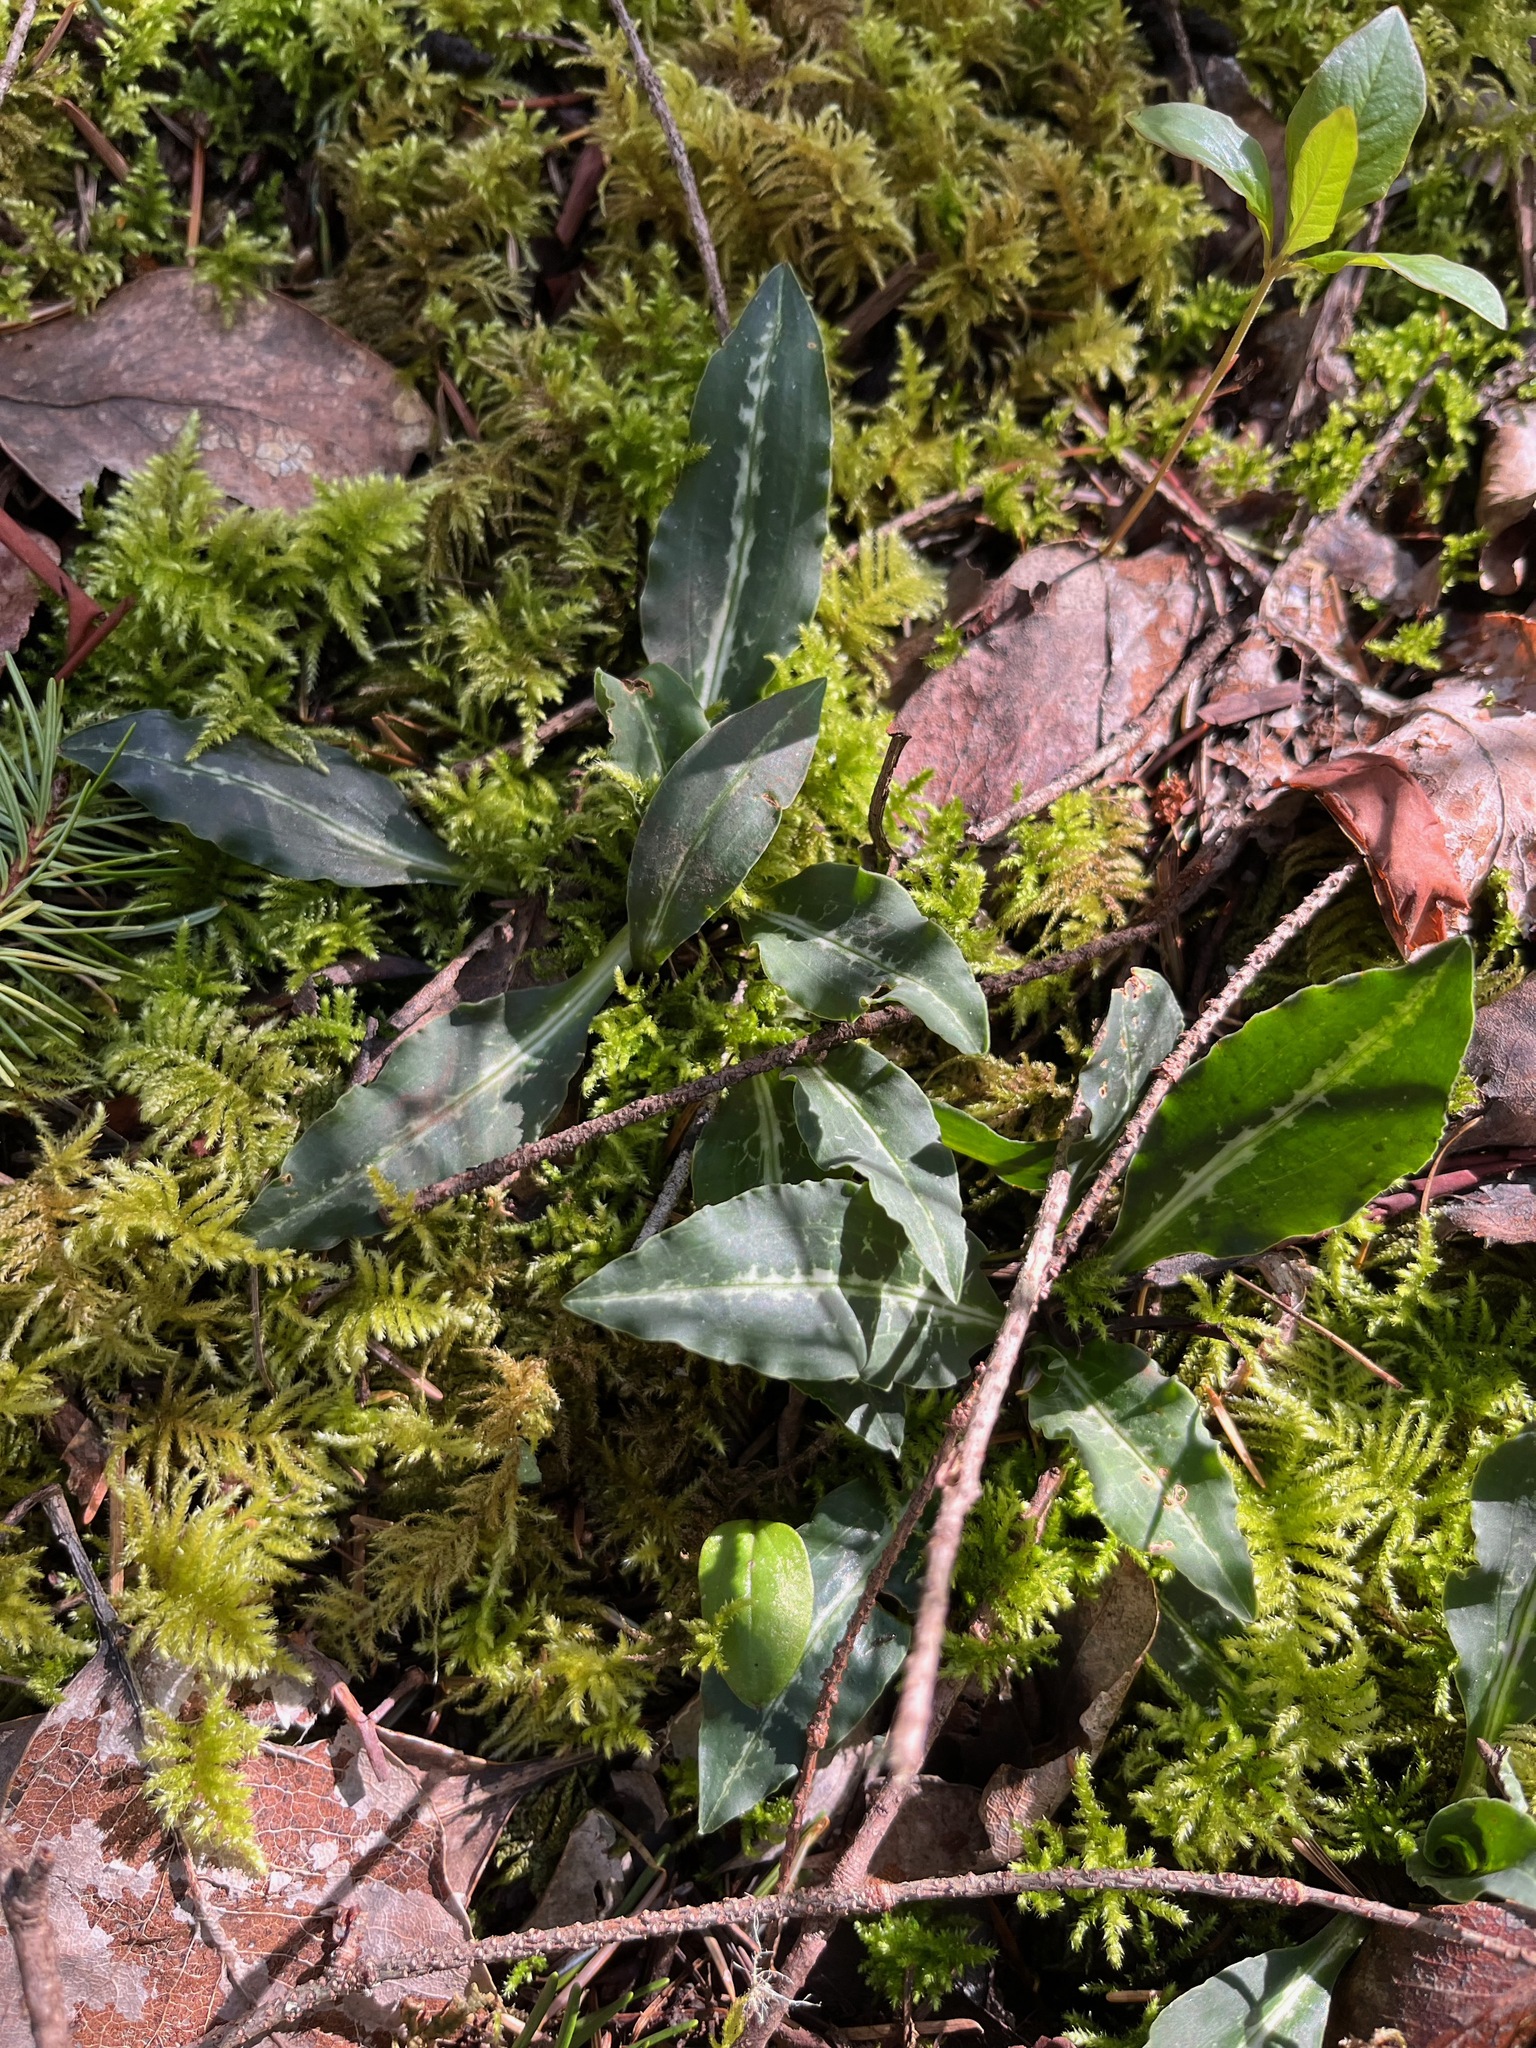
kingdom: Plantae
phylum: Tracheophyta
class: Liliopsida
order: Asparagales
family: Orchidaceae
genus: Goodyera
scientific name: Goodyera oblongifolia
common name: Giant rattlesnake-plantain
